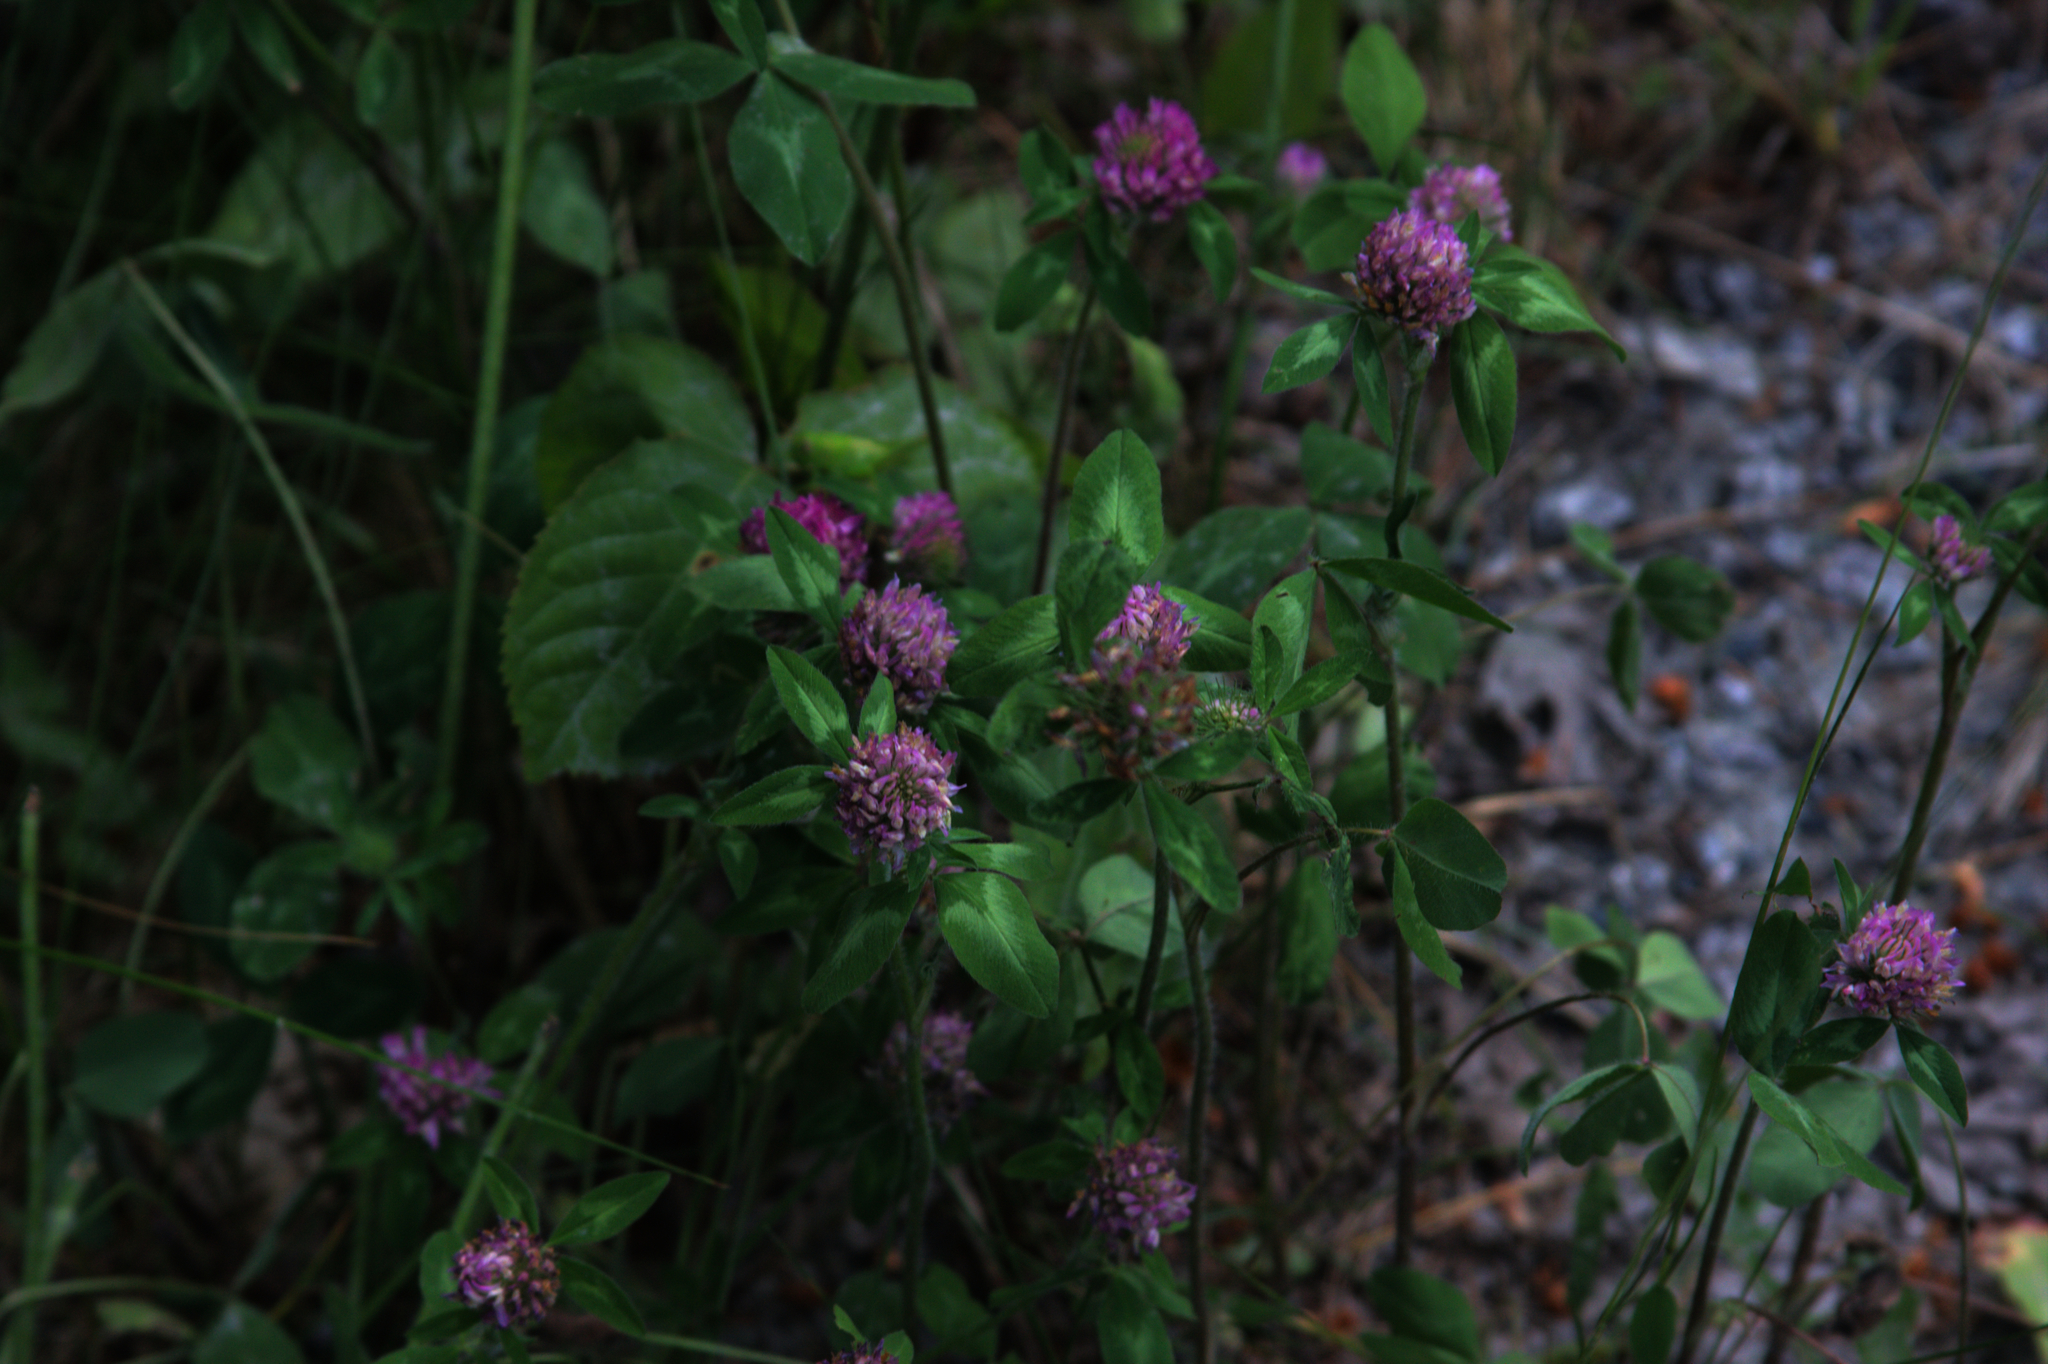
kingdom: Plantae
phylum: Tracheophyta
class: Magnoliopsida
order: Fabales
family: Fabaceae
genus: Trifolium
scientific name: Trifolium pratense
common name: Red clover
